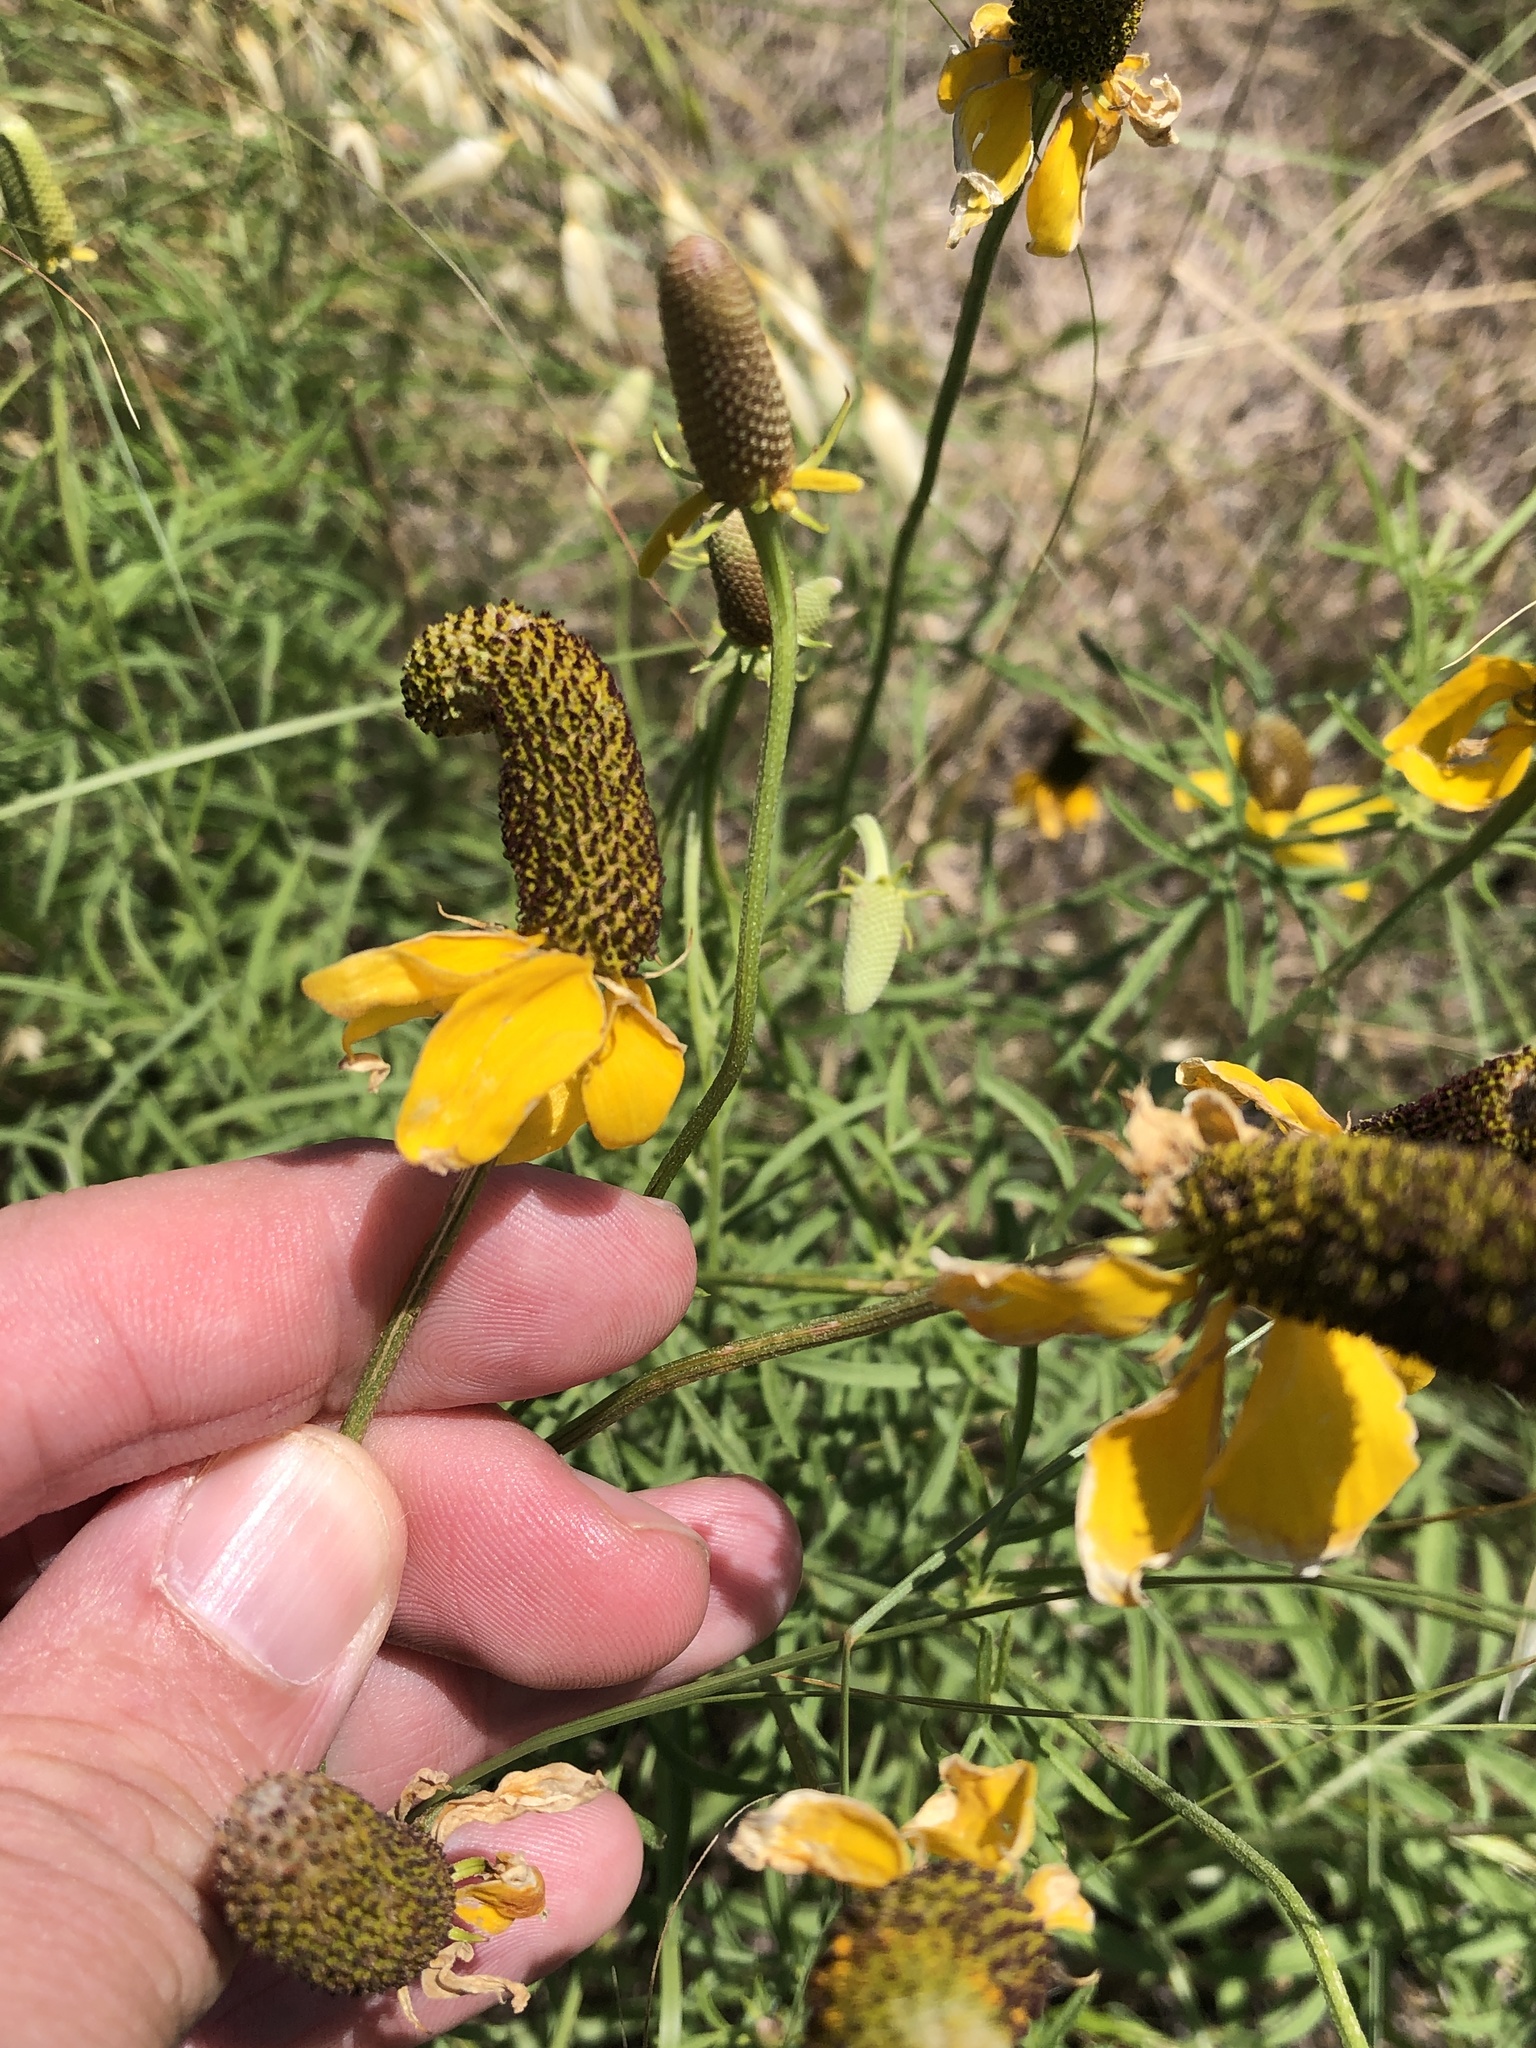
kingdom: Plantae
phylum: Tracheophyta
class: Magnoliopsida
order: Asterales
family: Asteraceae
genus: Ratibida
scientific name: Ratibida columnifera
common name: Prairie coneflower
